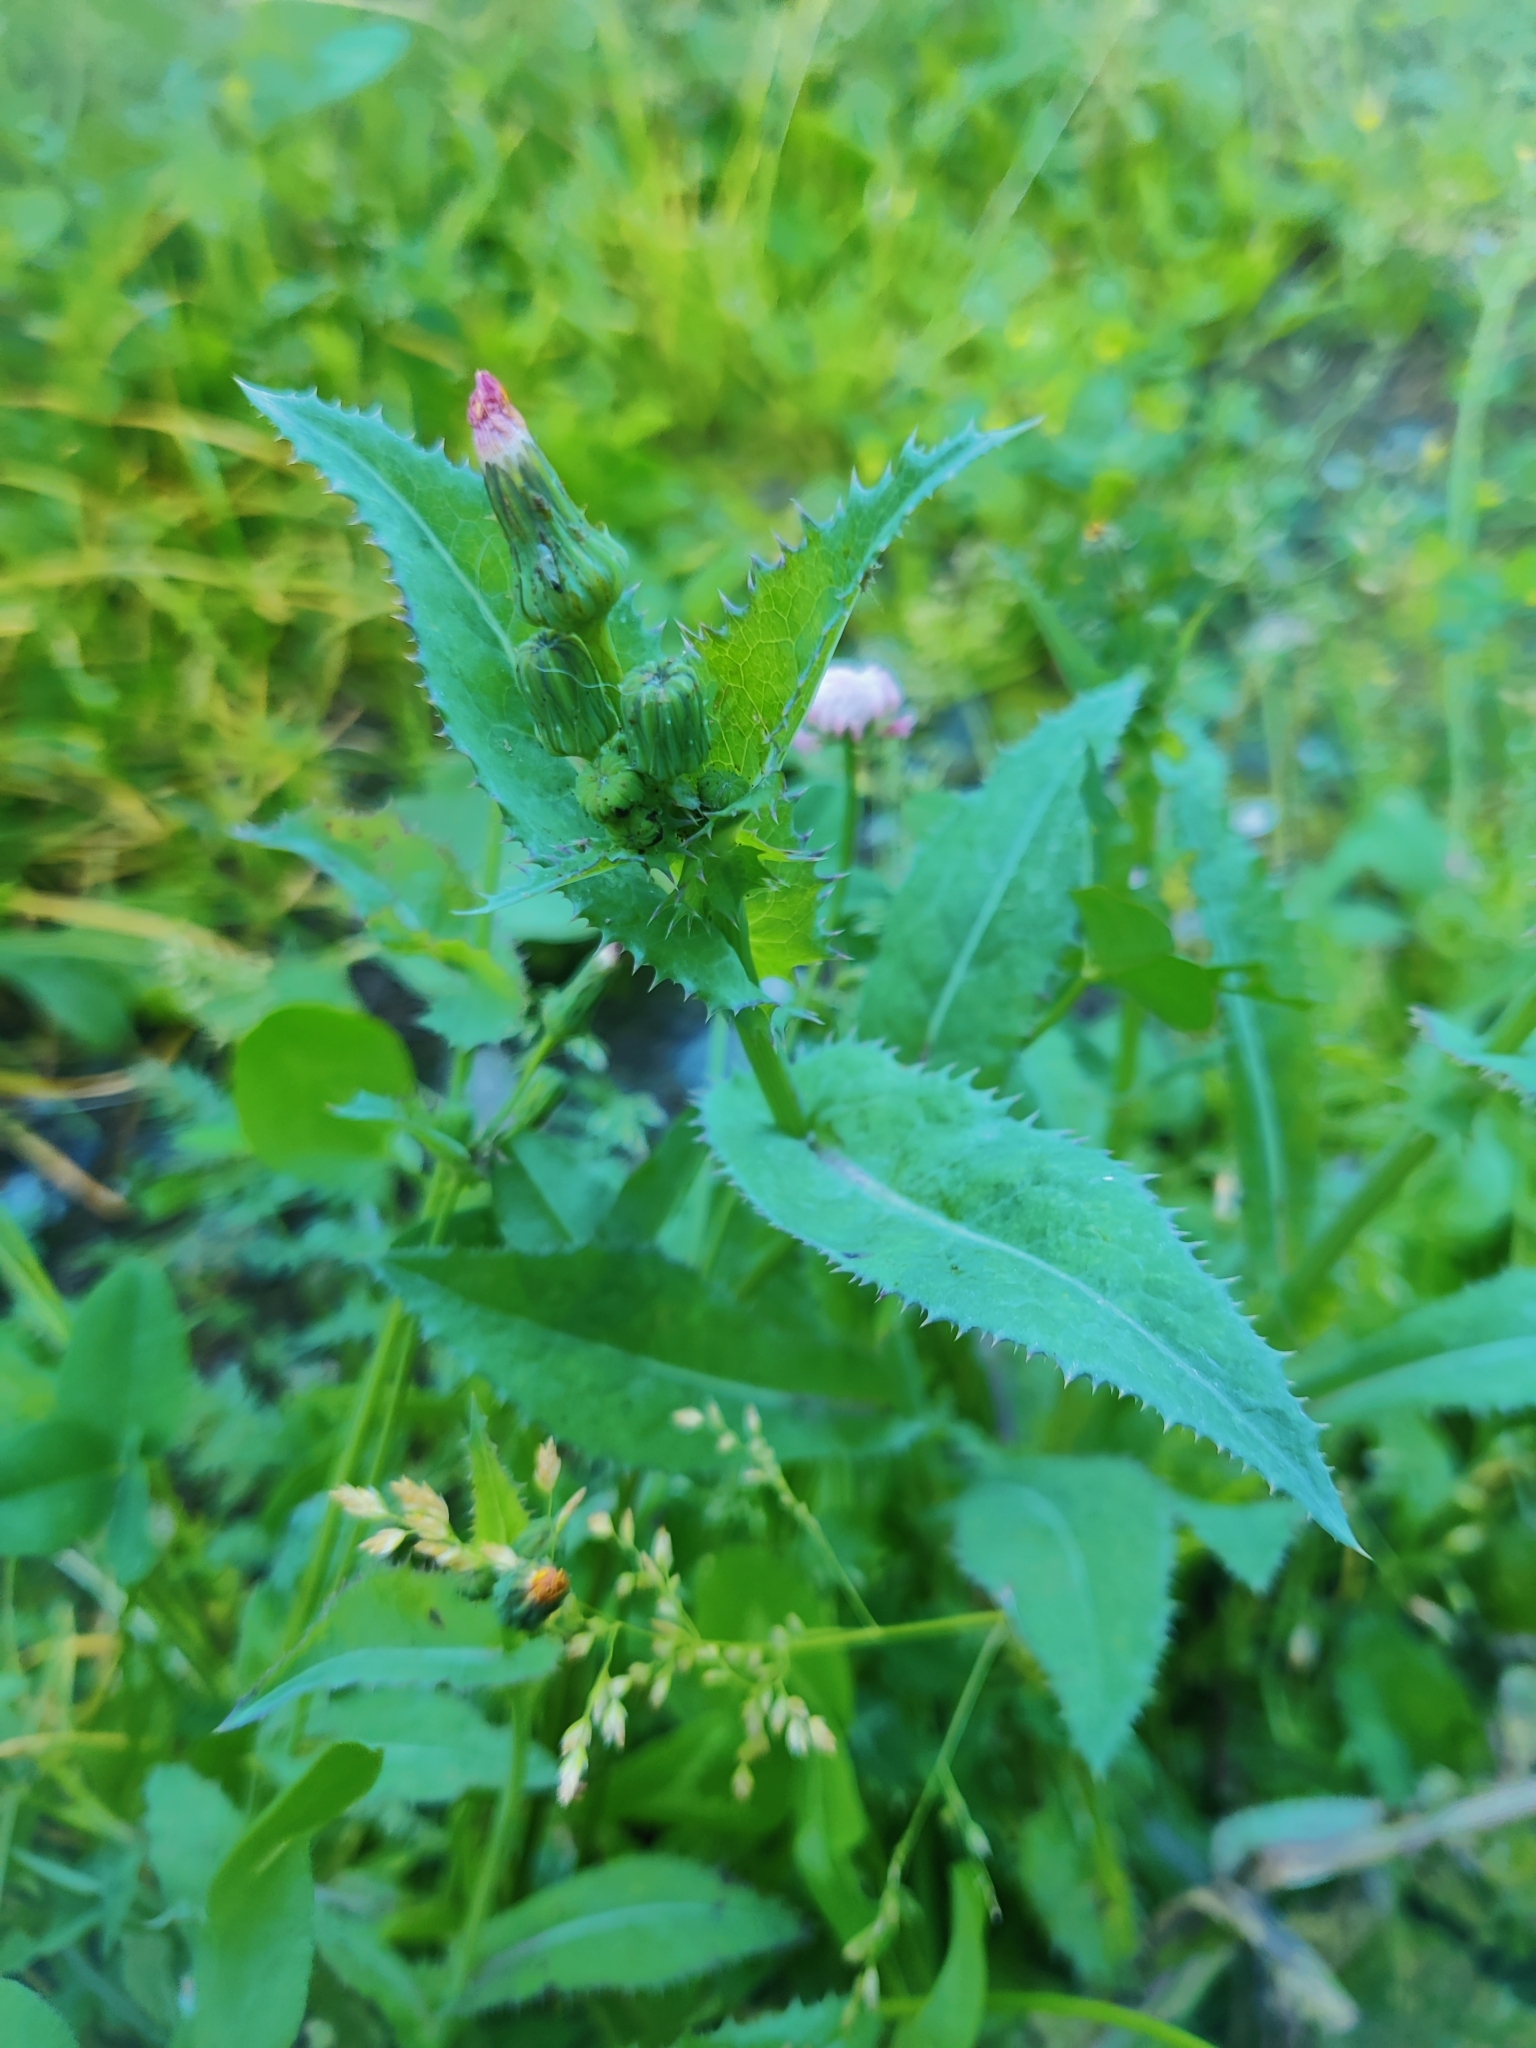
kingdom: Plantae
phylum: Tracheophyta
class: Magnoliopsida
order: Asterales
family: Asteraceae
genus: Sonchus
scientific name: Sonchus oleraceus
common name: Common sowthistle
